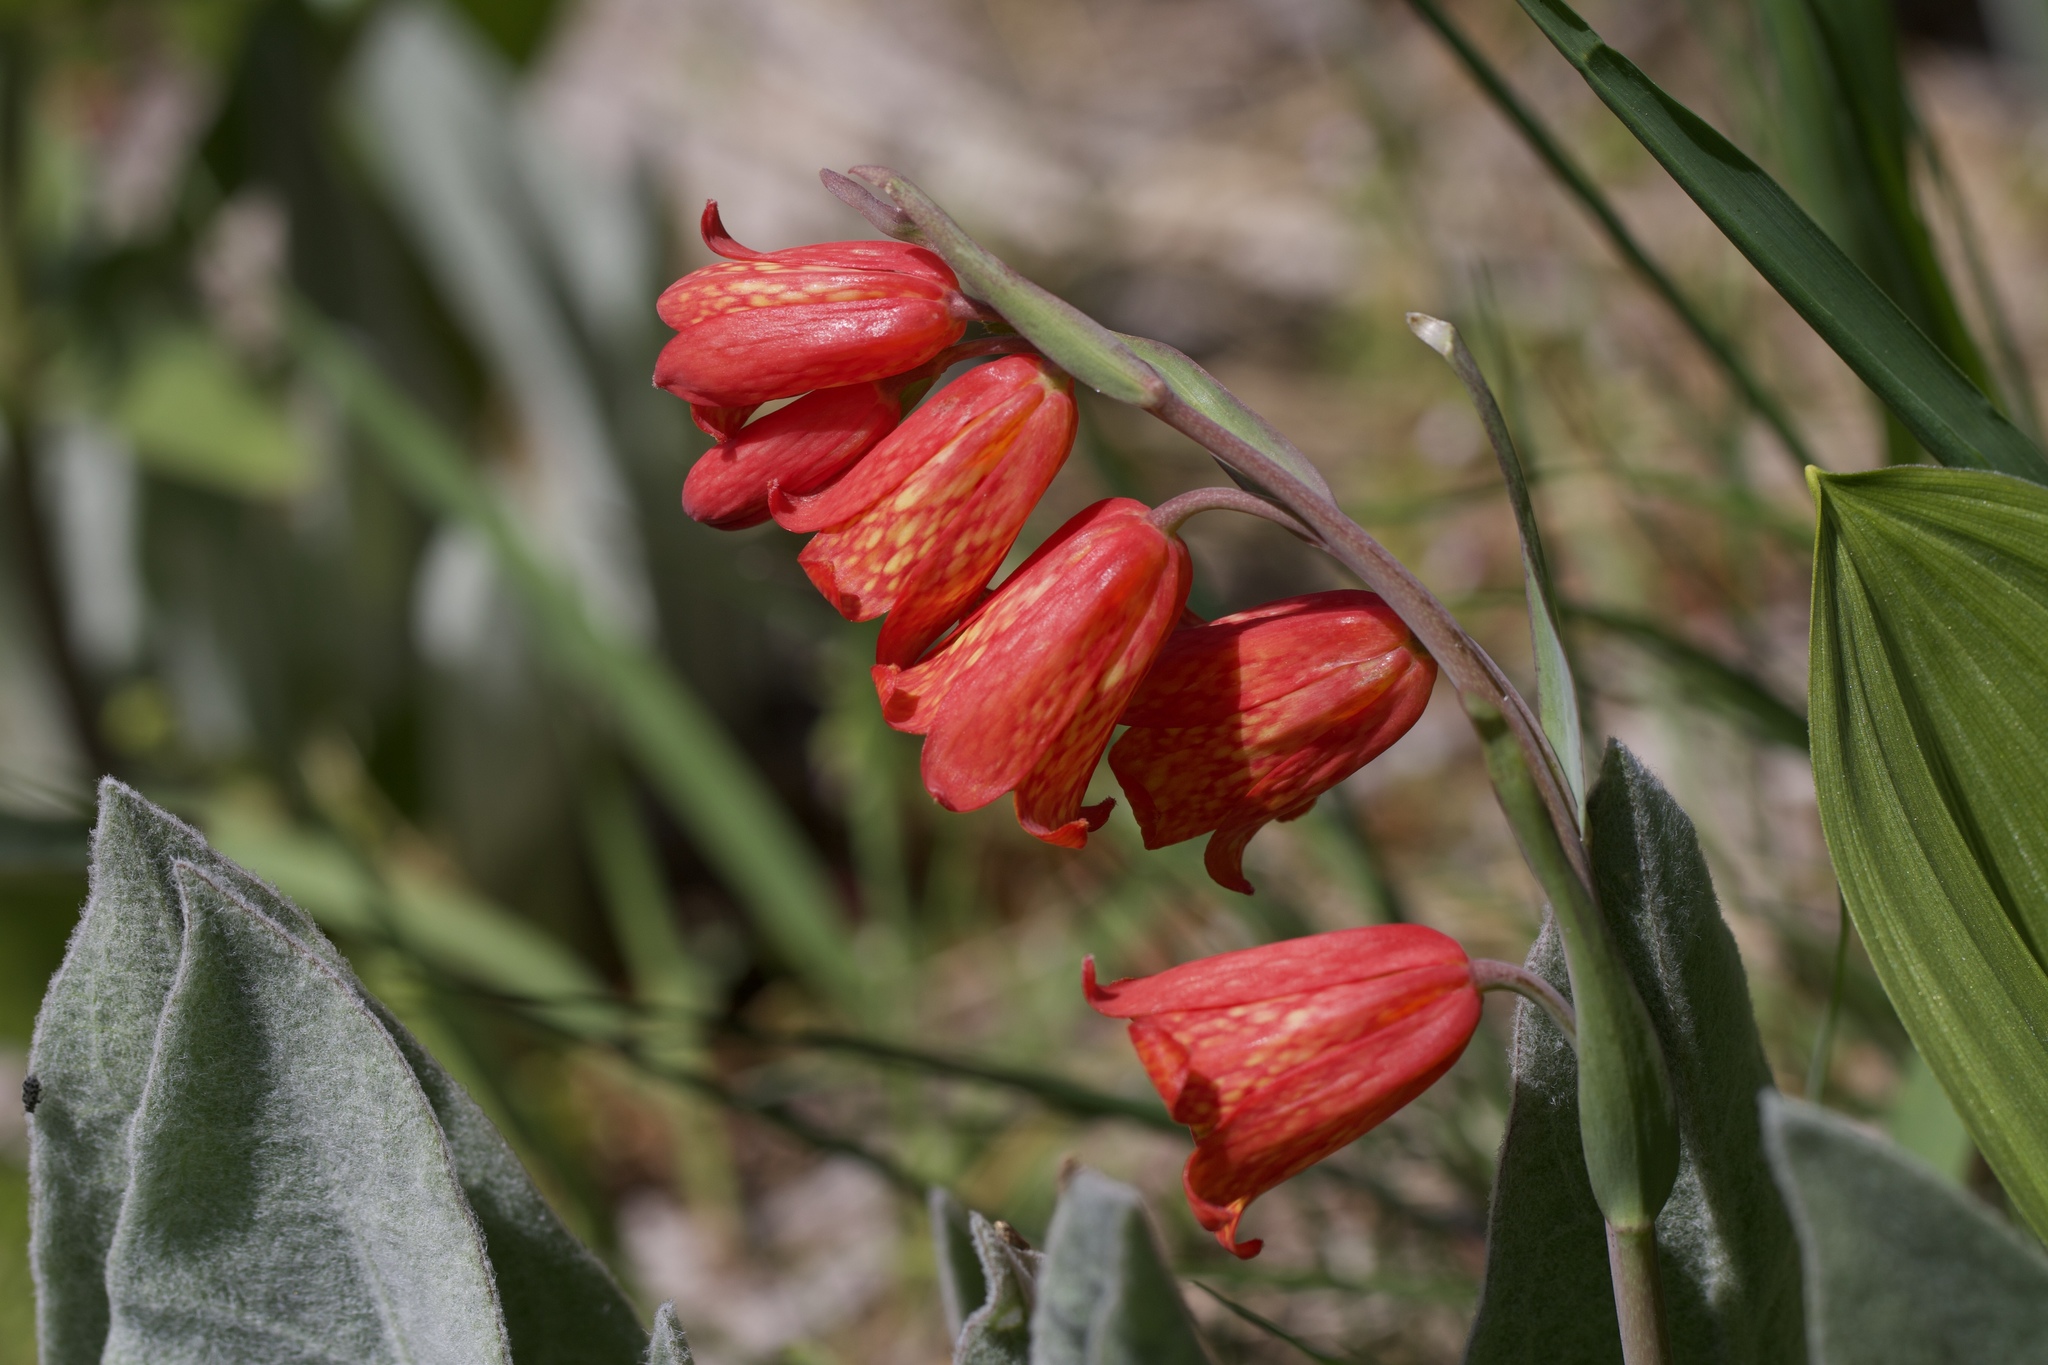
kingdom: Plantae
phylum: Tracheophyta
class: Liliopsida
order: Liliales
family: Liliaceae
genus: Fritillaria
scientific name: Fritillaria recurva
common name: Scarlet fritillary
